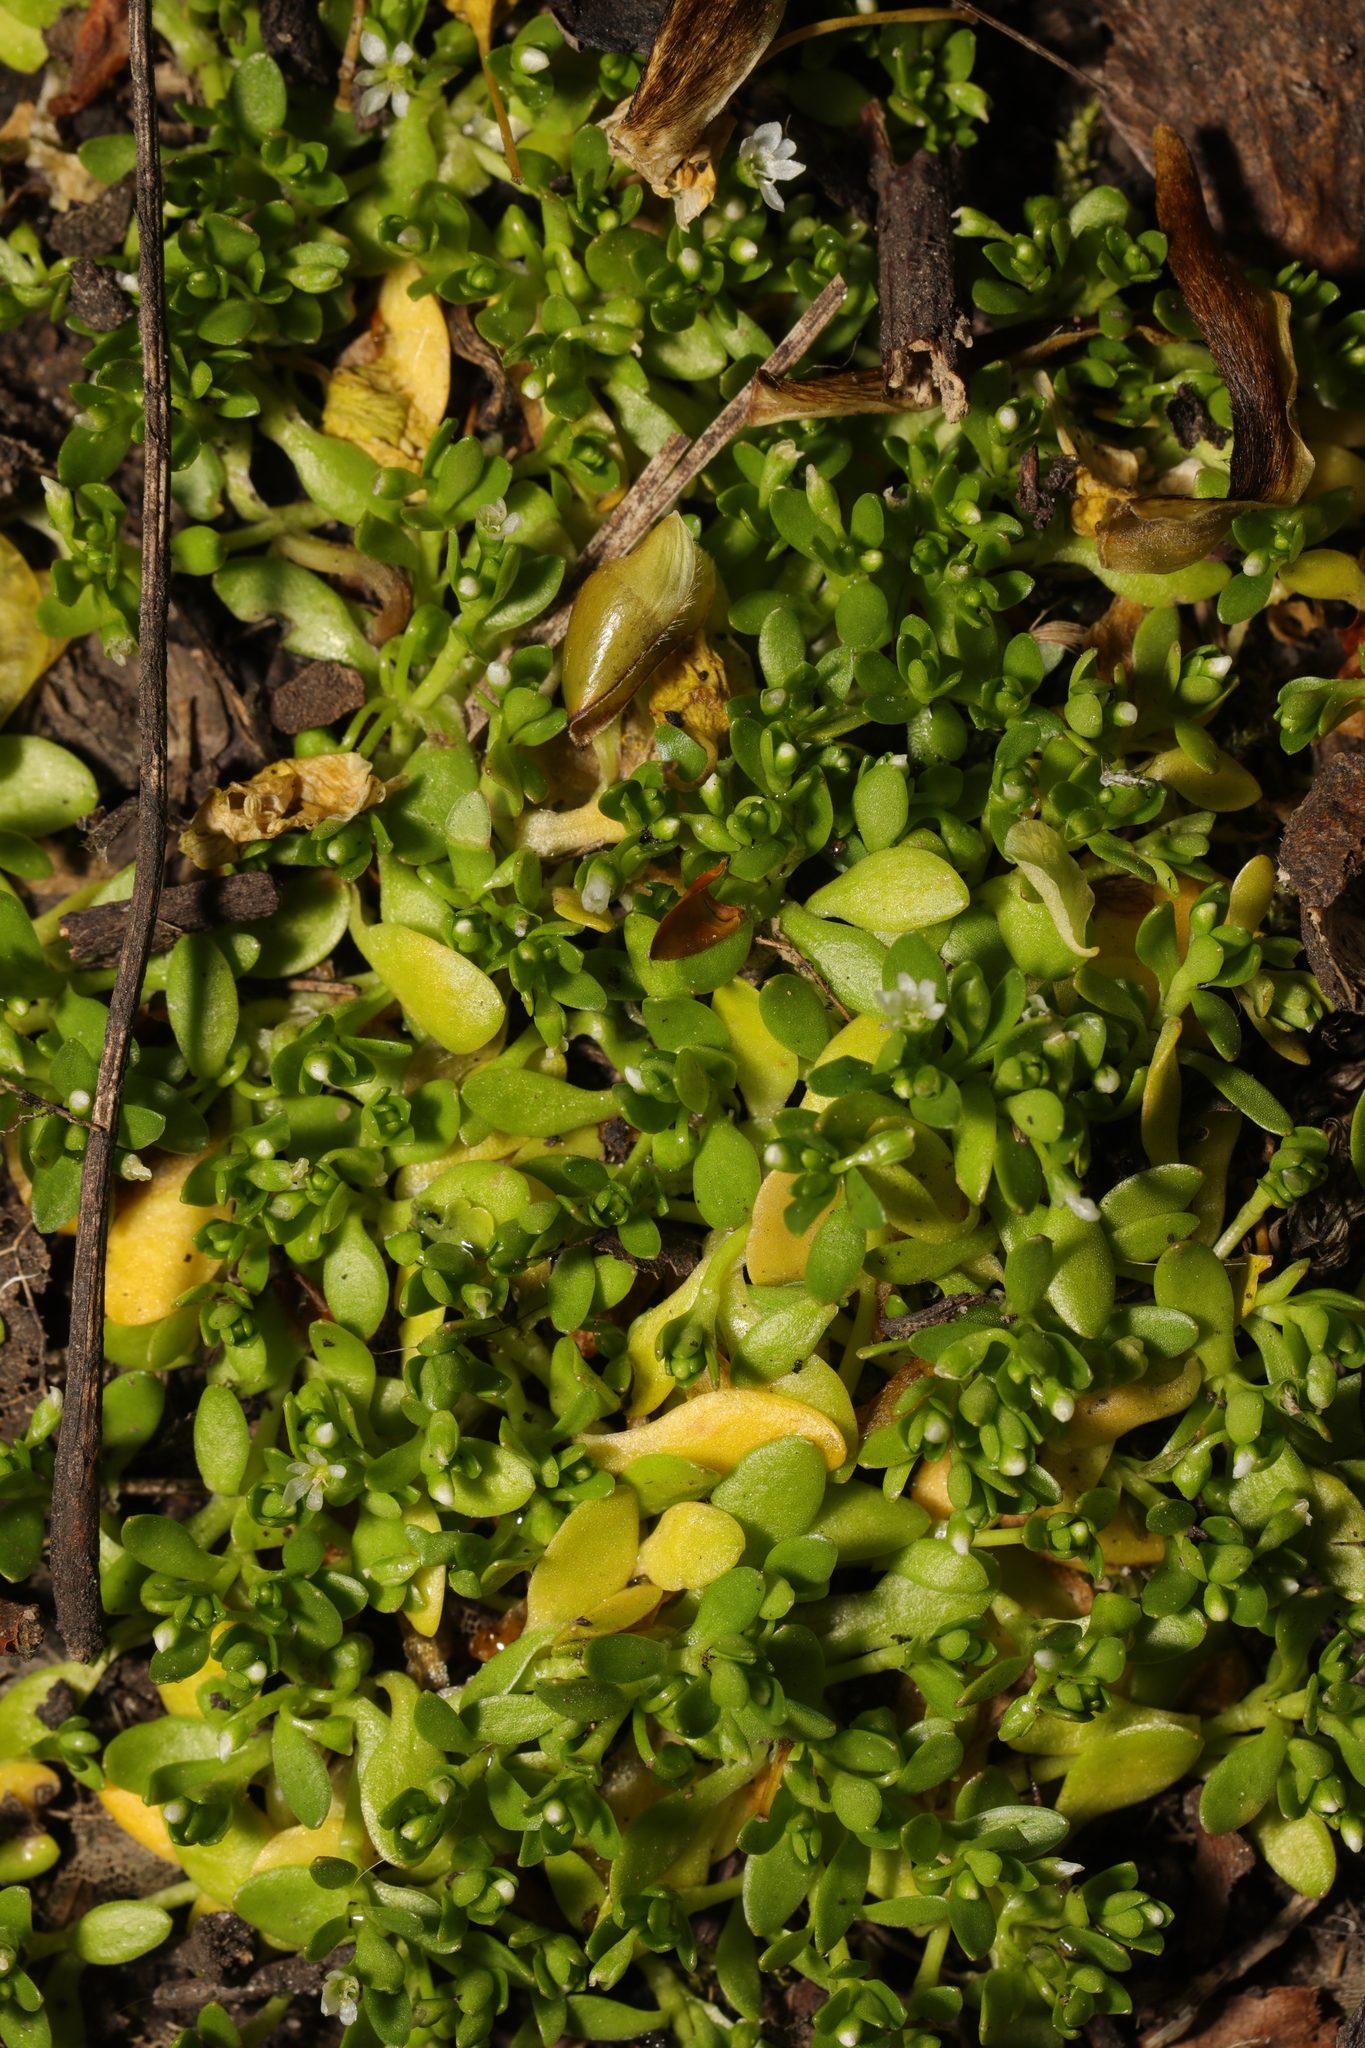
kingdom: Plantae
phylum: Tracheophyta
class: Magnoliopsida
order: Caryophyllales
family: Montiaceae
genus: Montia
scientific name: Montia fontana
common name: Blinks
